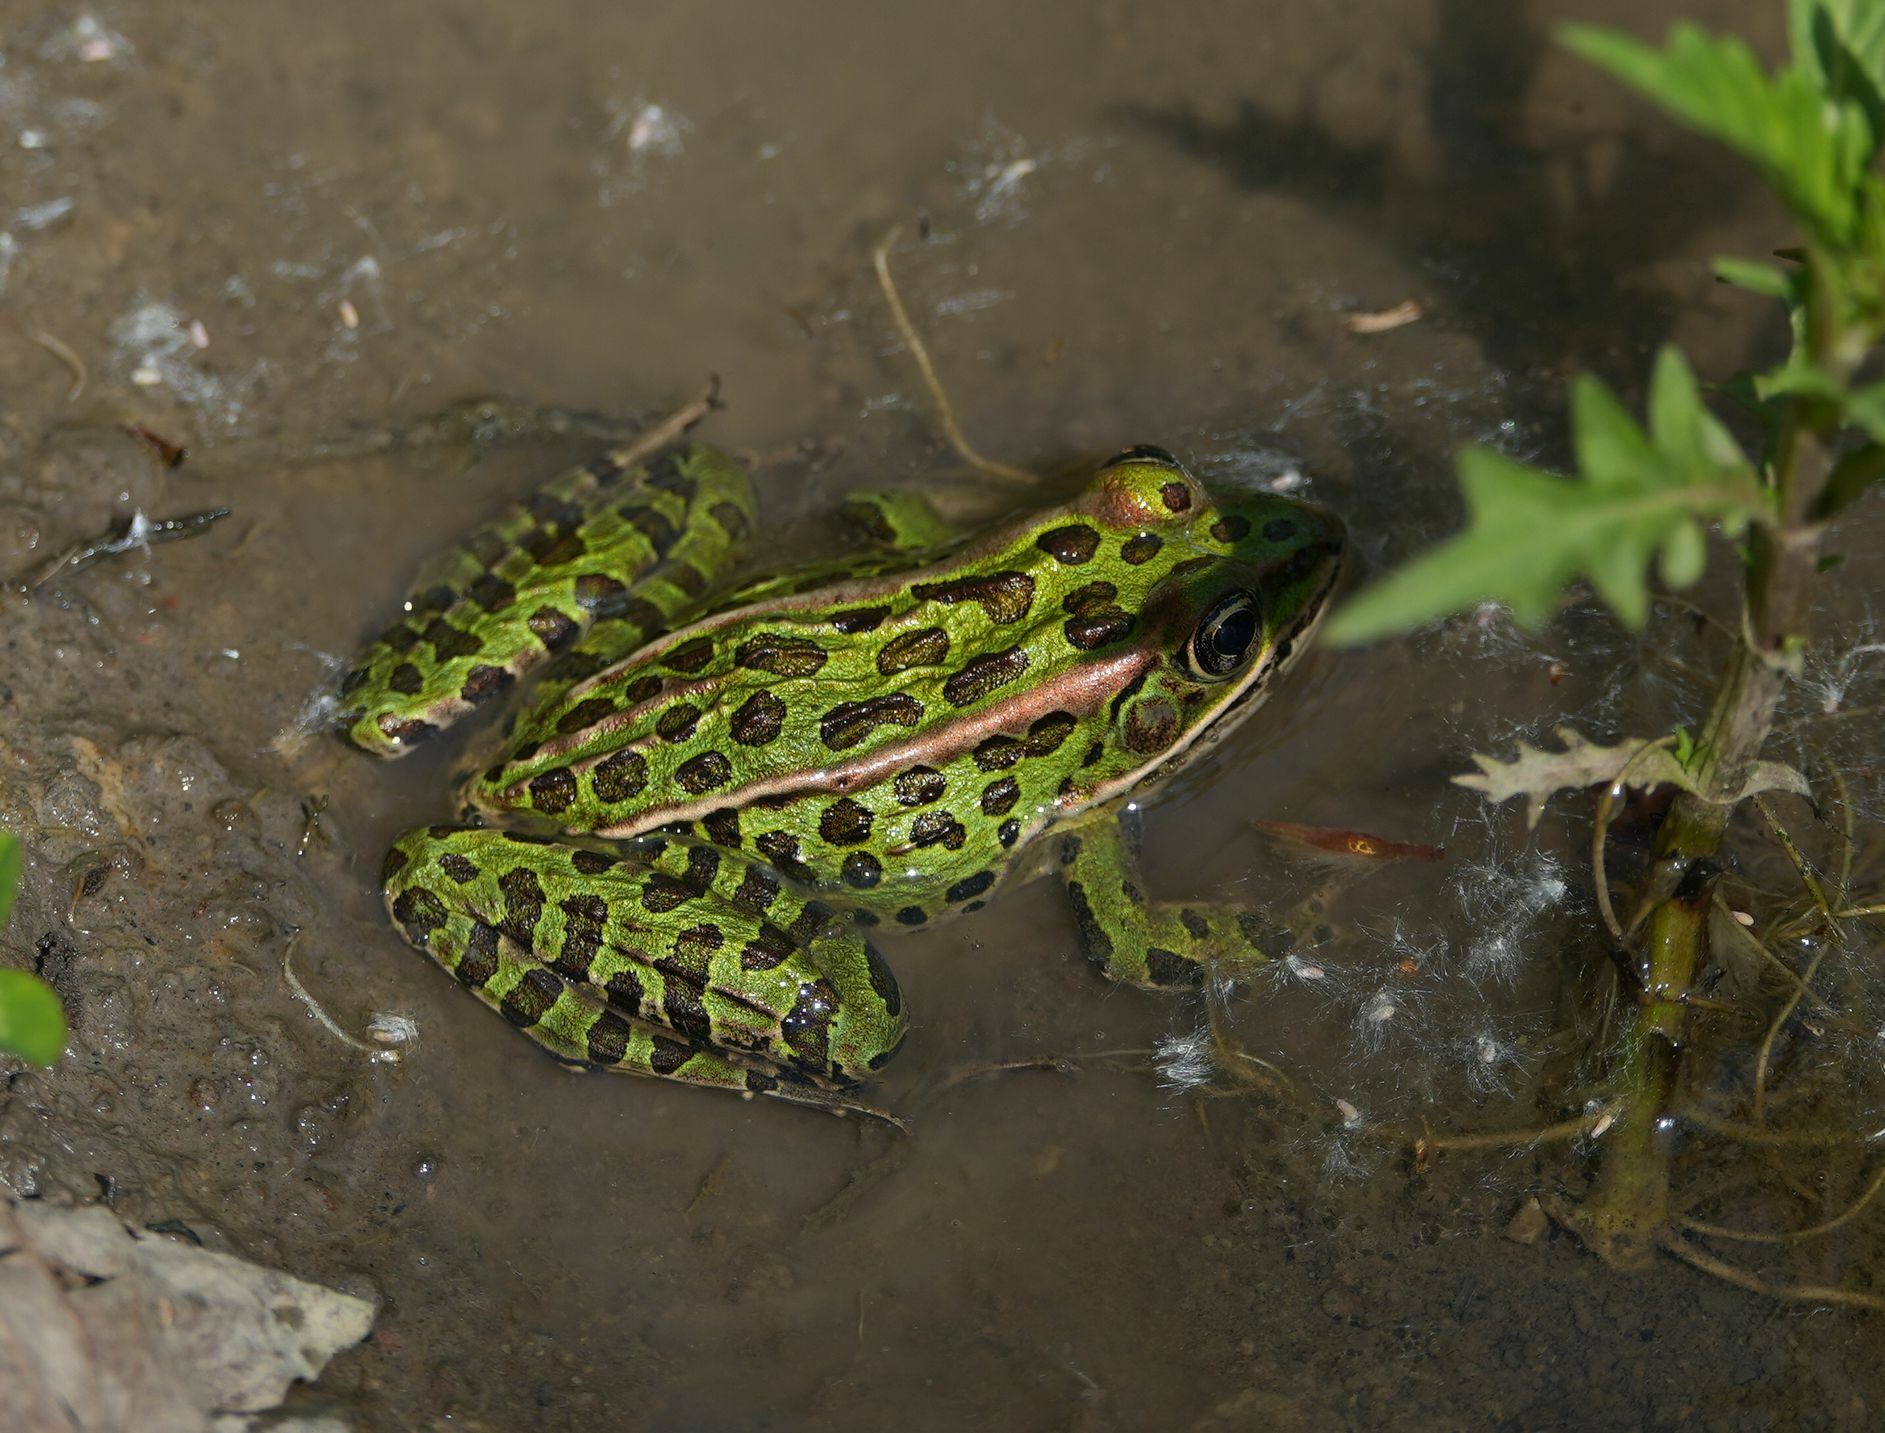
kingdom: Animalia
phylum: Chordata
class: Amphibia
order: Anura
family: Ranidae
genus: Lithobates
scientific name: Lithobates pipiens
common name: Northern leopard frog
